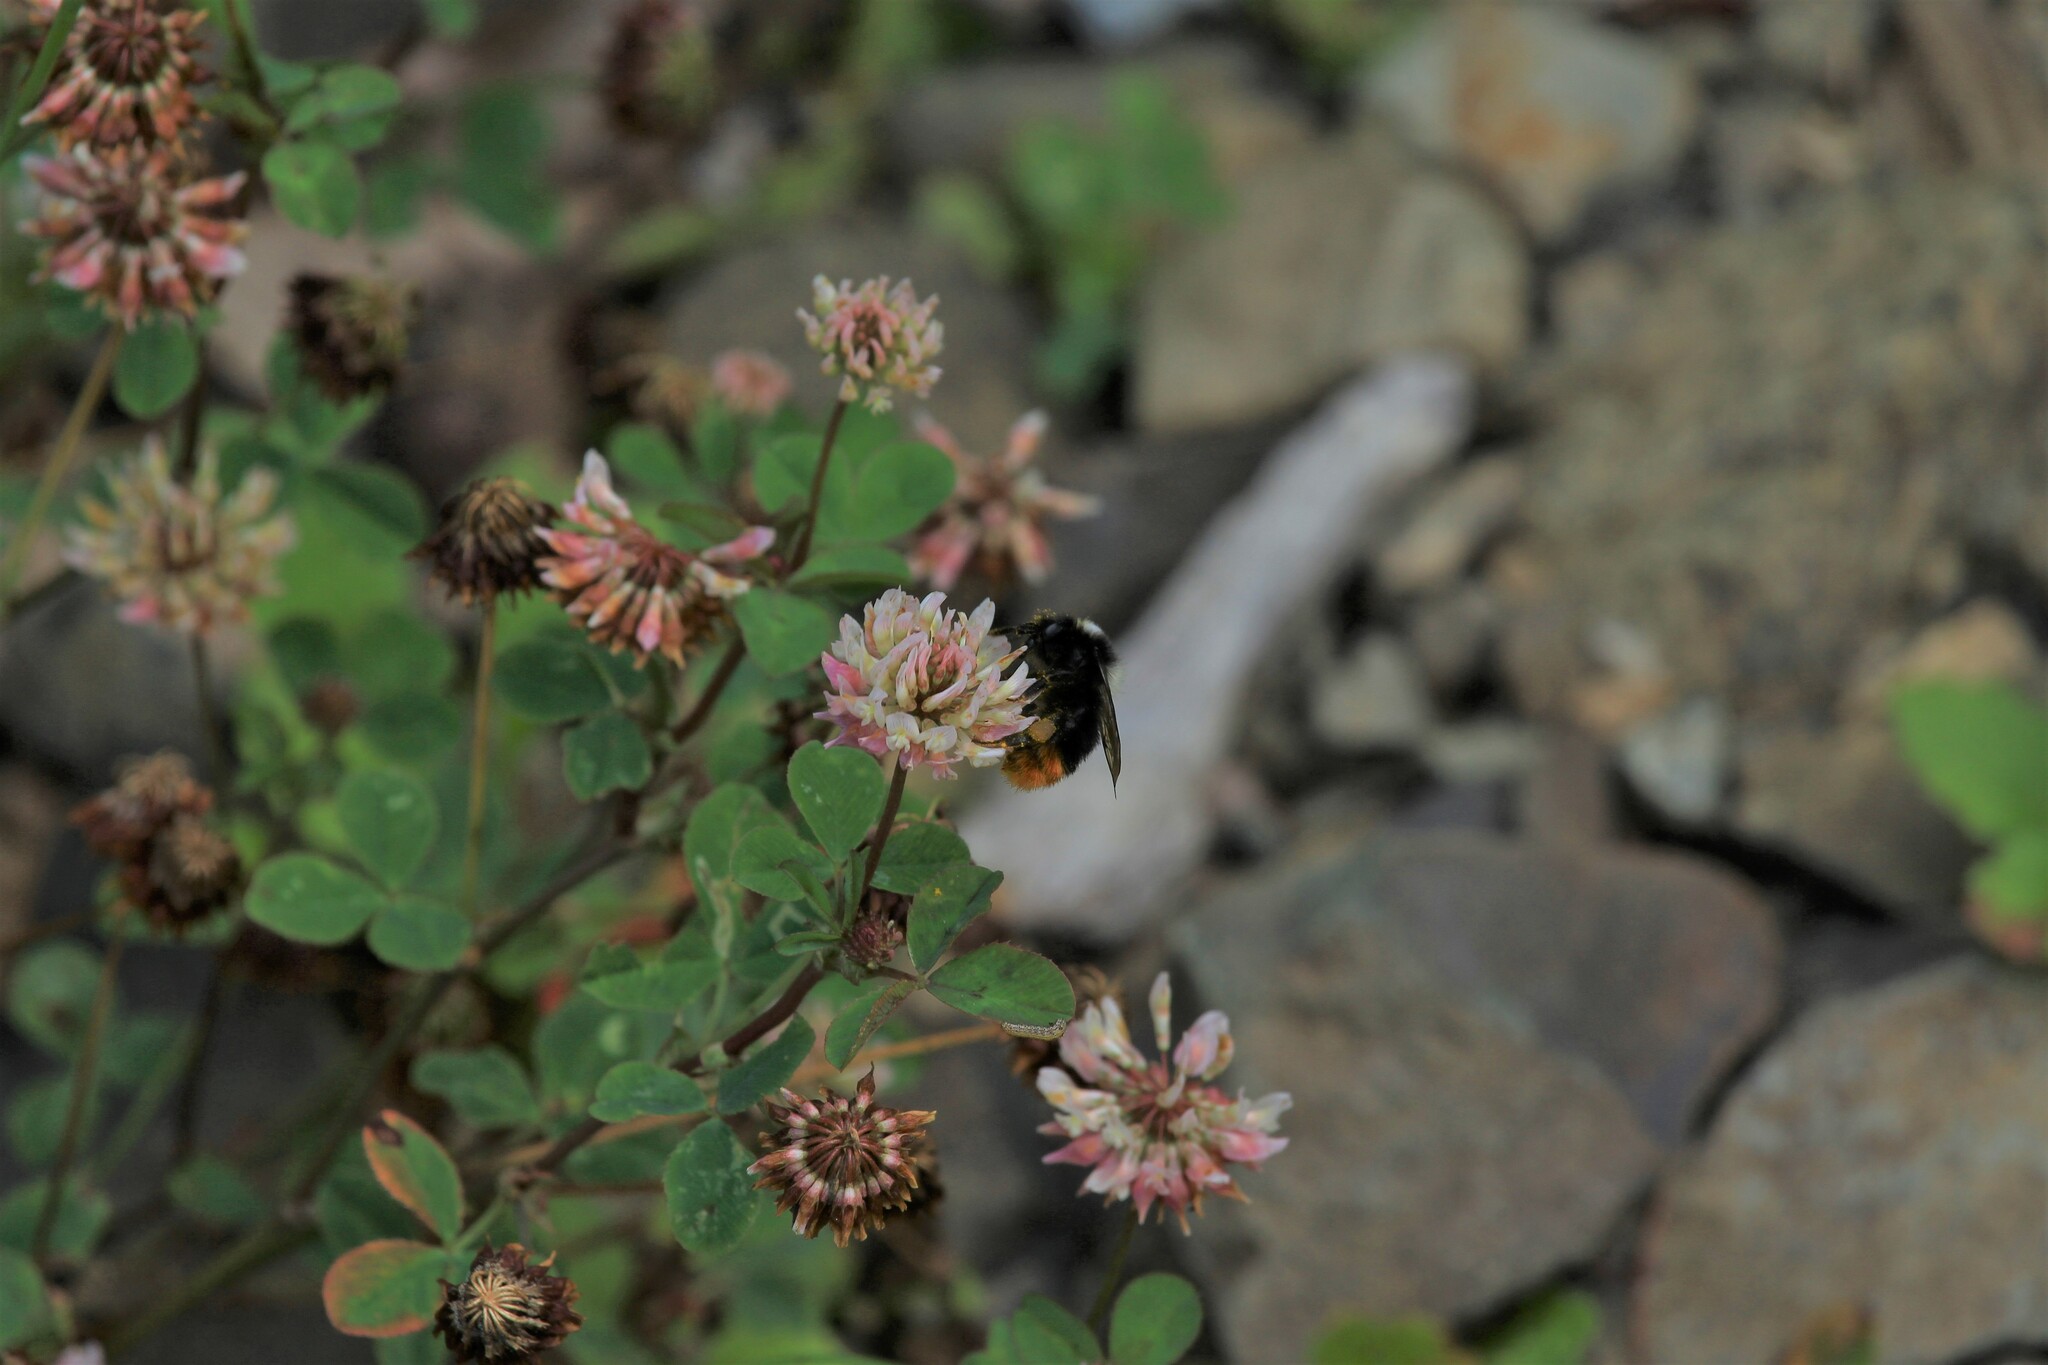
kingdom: Animalia
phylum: Arthropoda
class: Insecta
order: Hymenoptera
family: Apidae
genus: Bombus
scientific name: Bombus lapidarius
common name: Large red-tailed humble-bee
